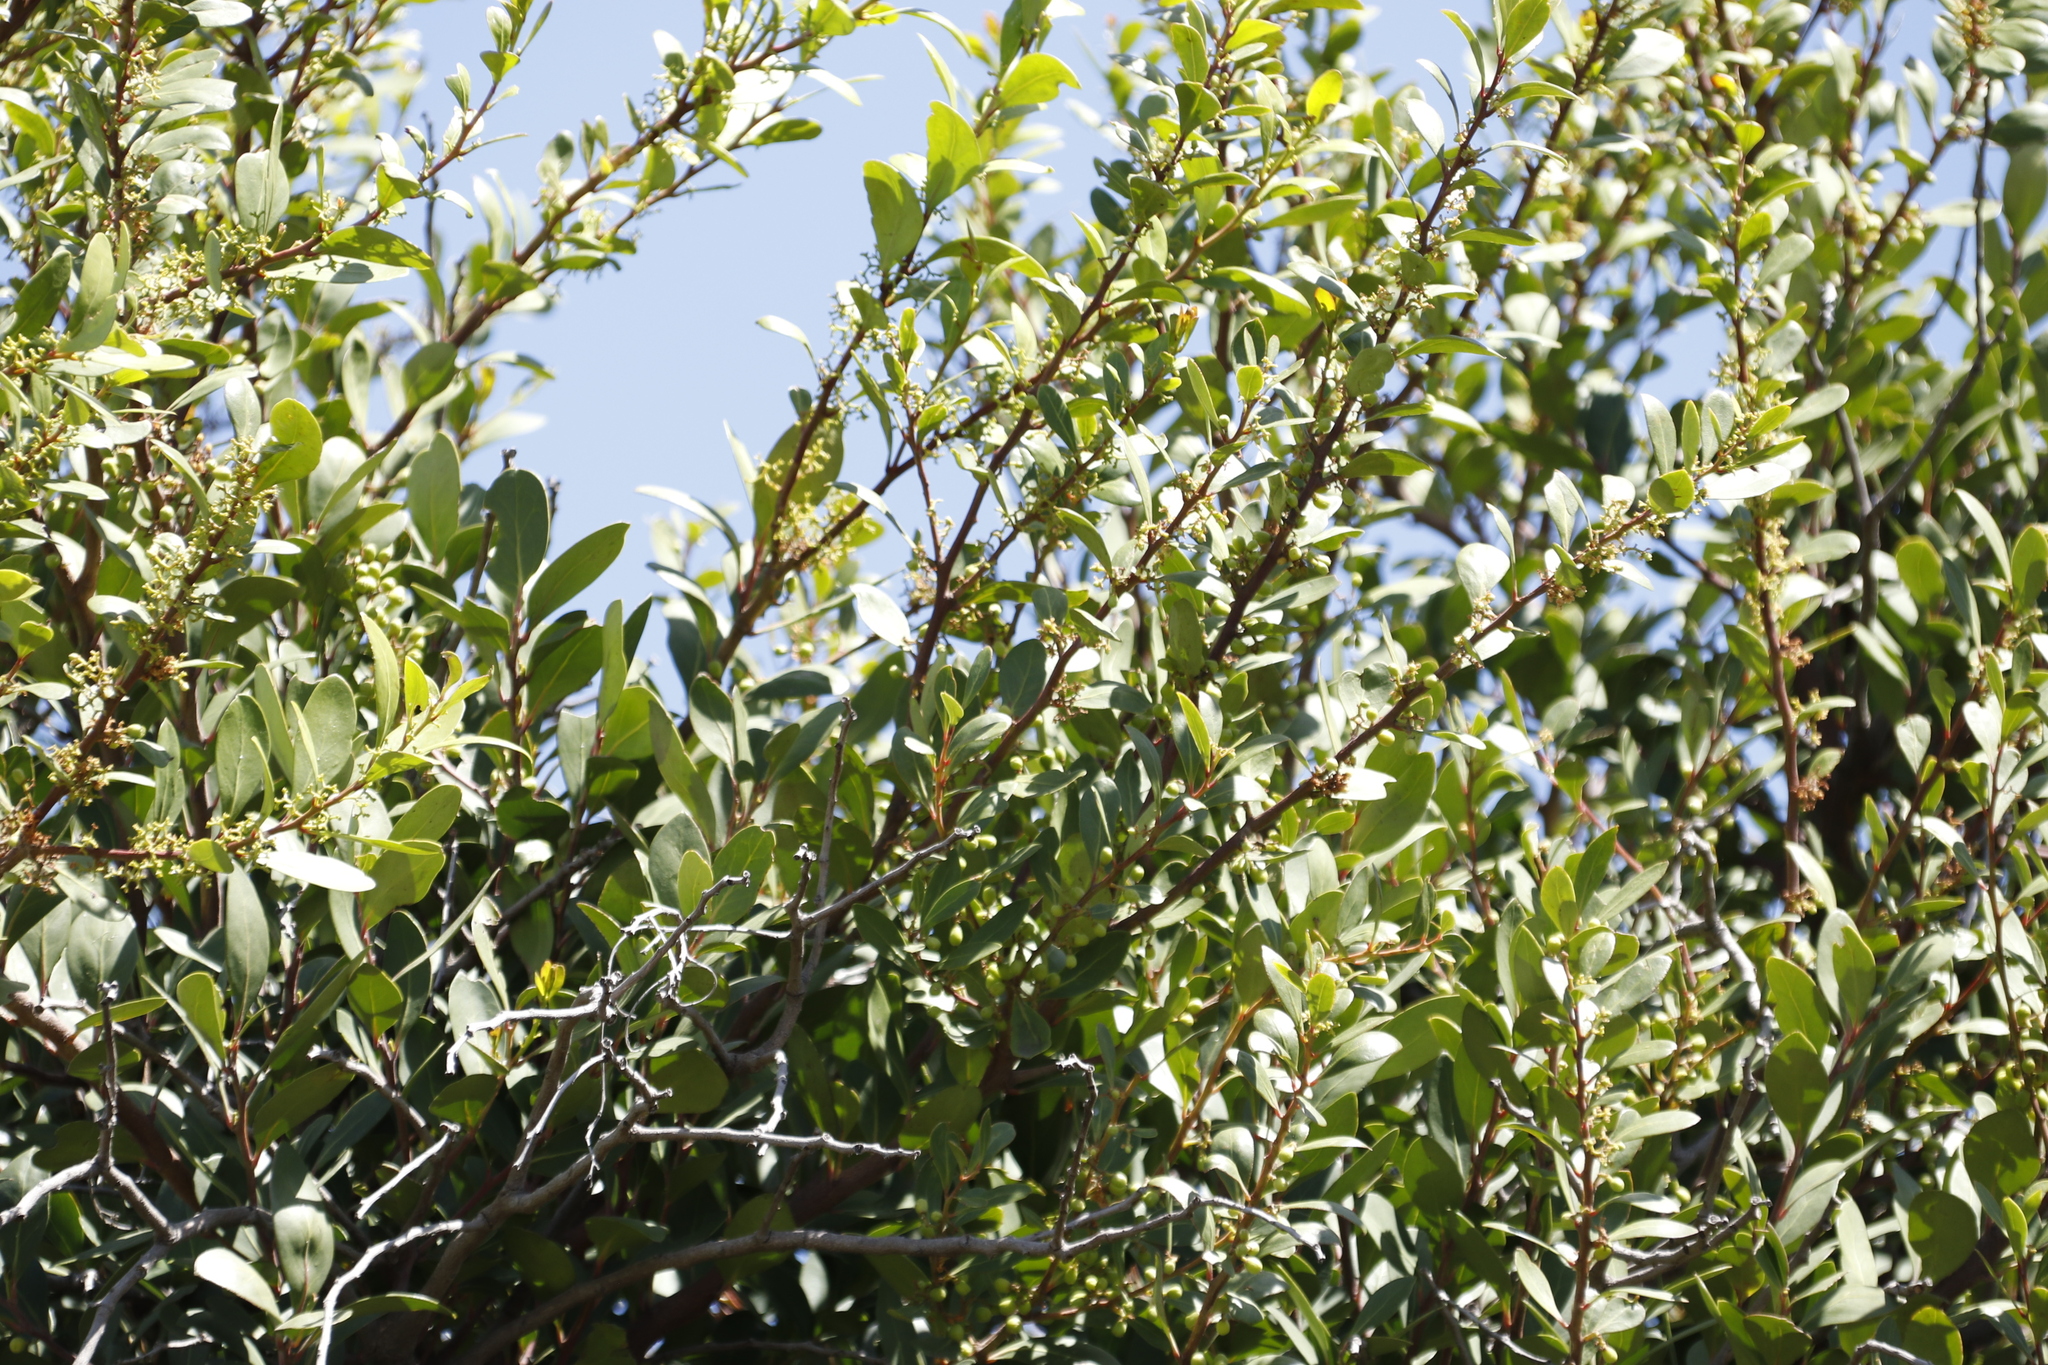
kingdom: Plantae
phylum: Tracheophyta
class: Magnoliopsida
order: Celastrales
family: Celastraceae
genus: Gymnosporia
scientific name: Gymnosporia laurina
